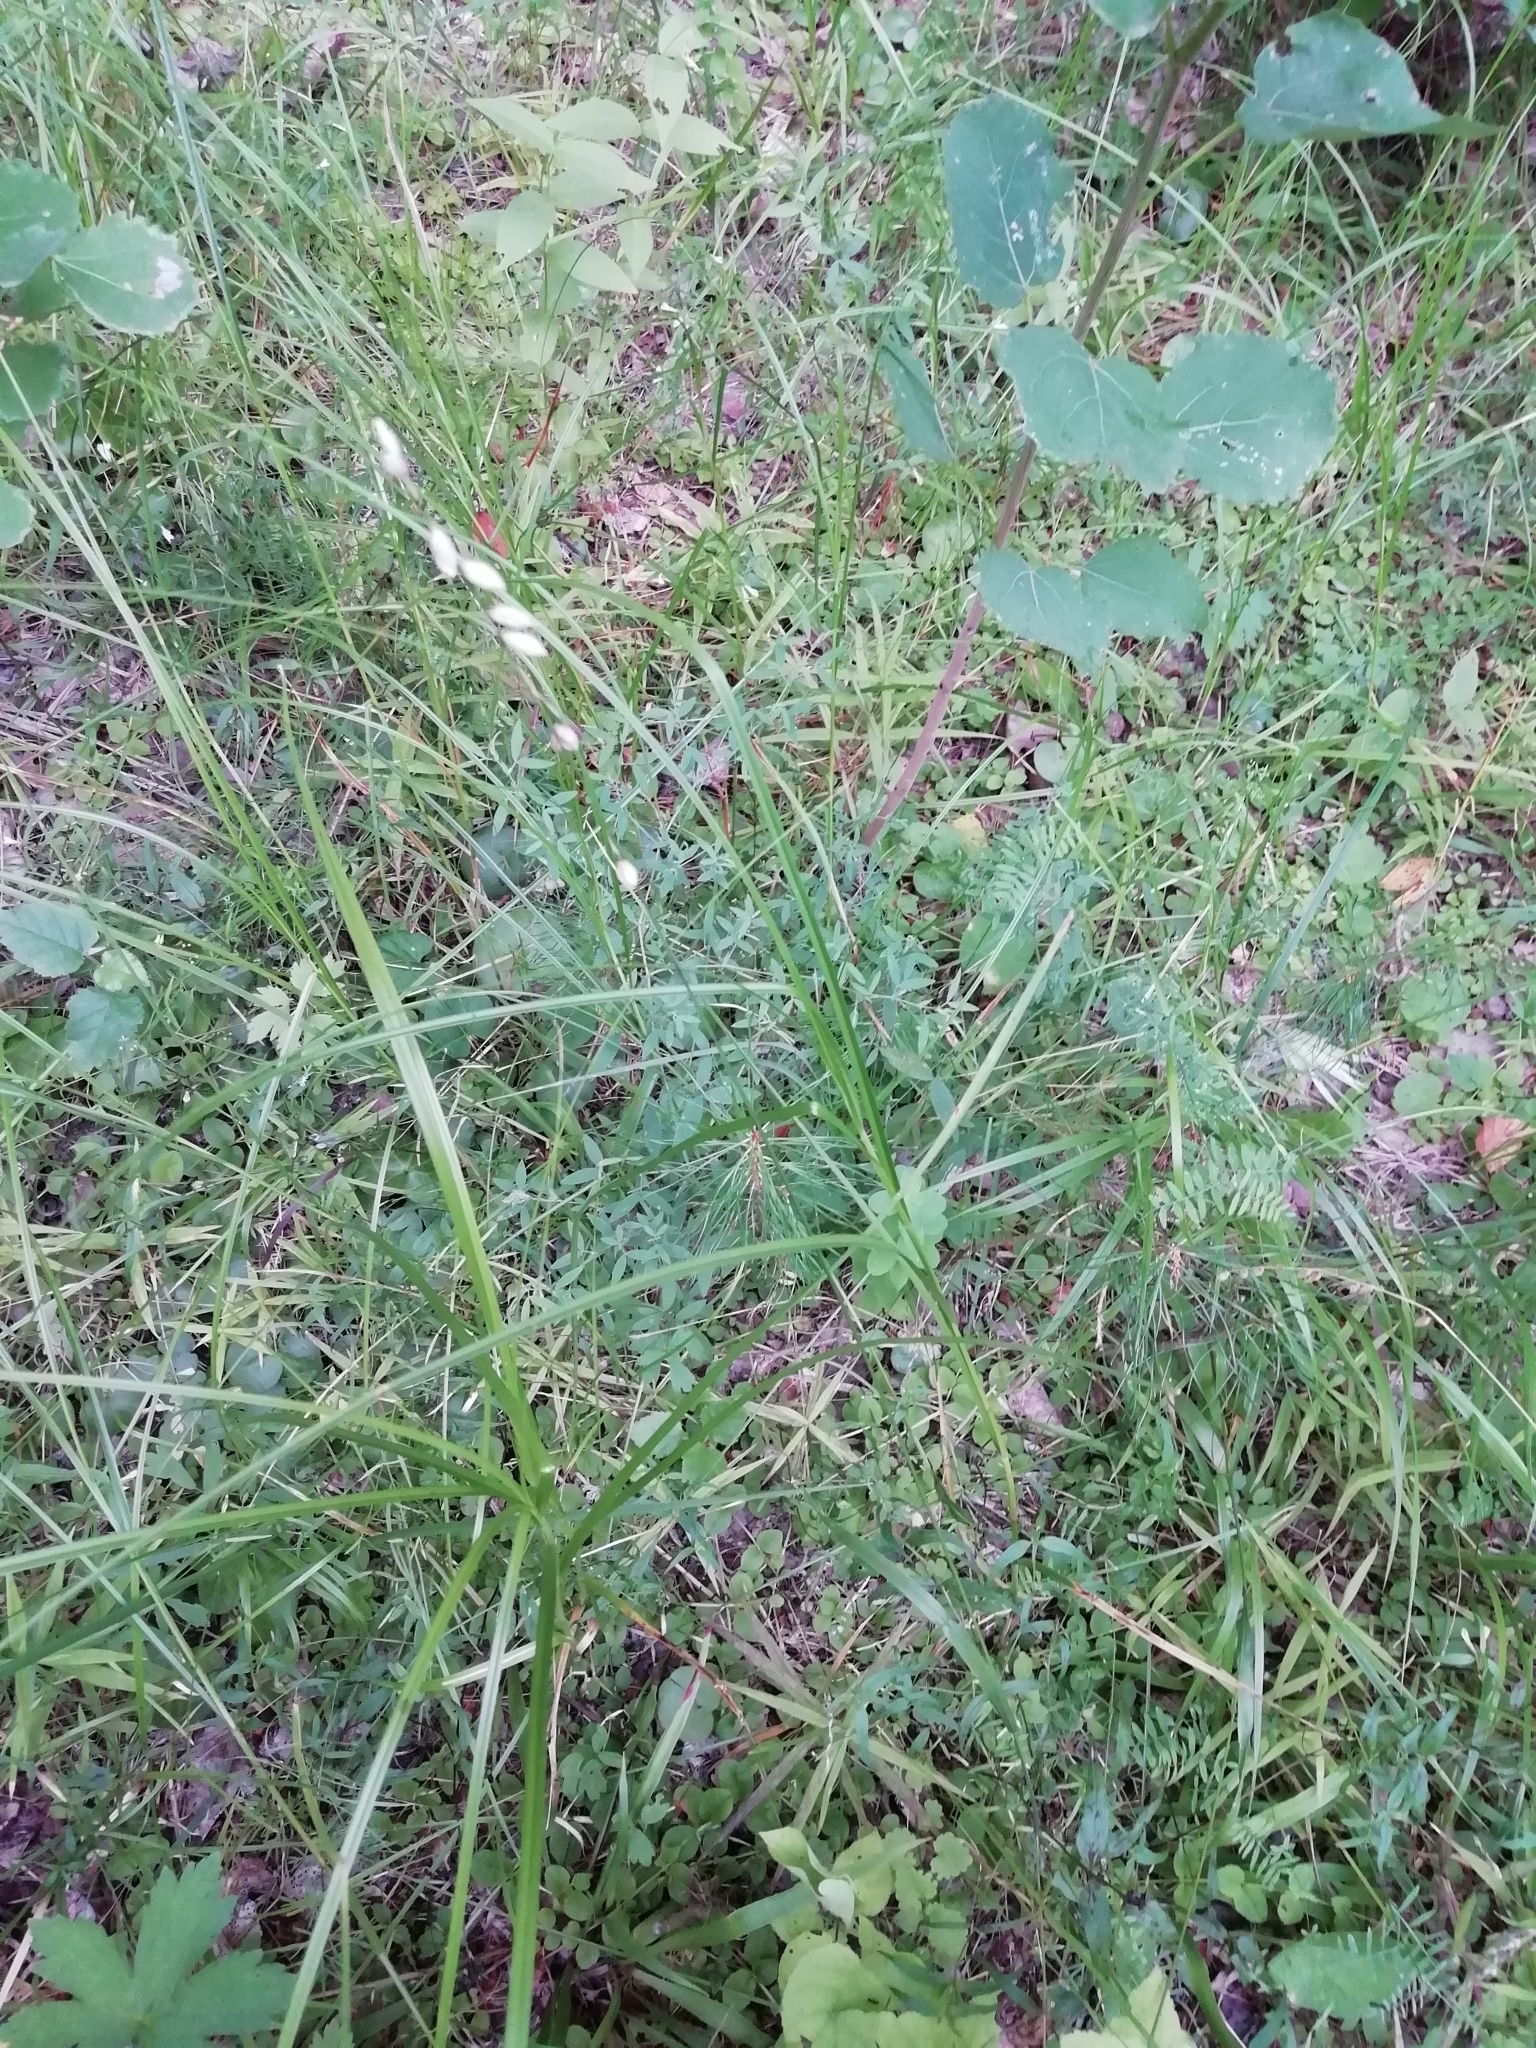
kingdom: Plantae
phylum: Tracheophyta
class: Liliopsida
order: Poales
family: Poaceae
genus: Melica
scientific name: Melica nutans
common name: Mountain melick
